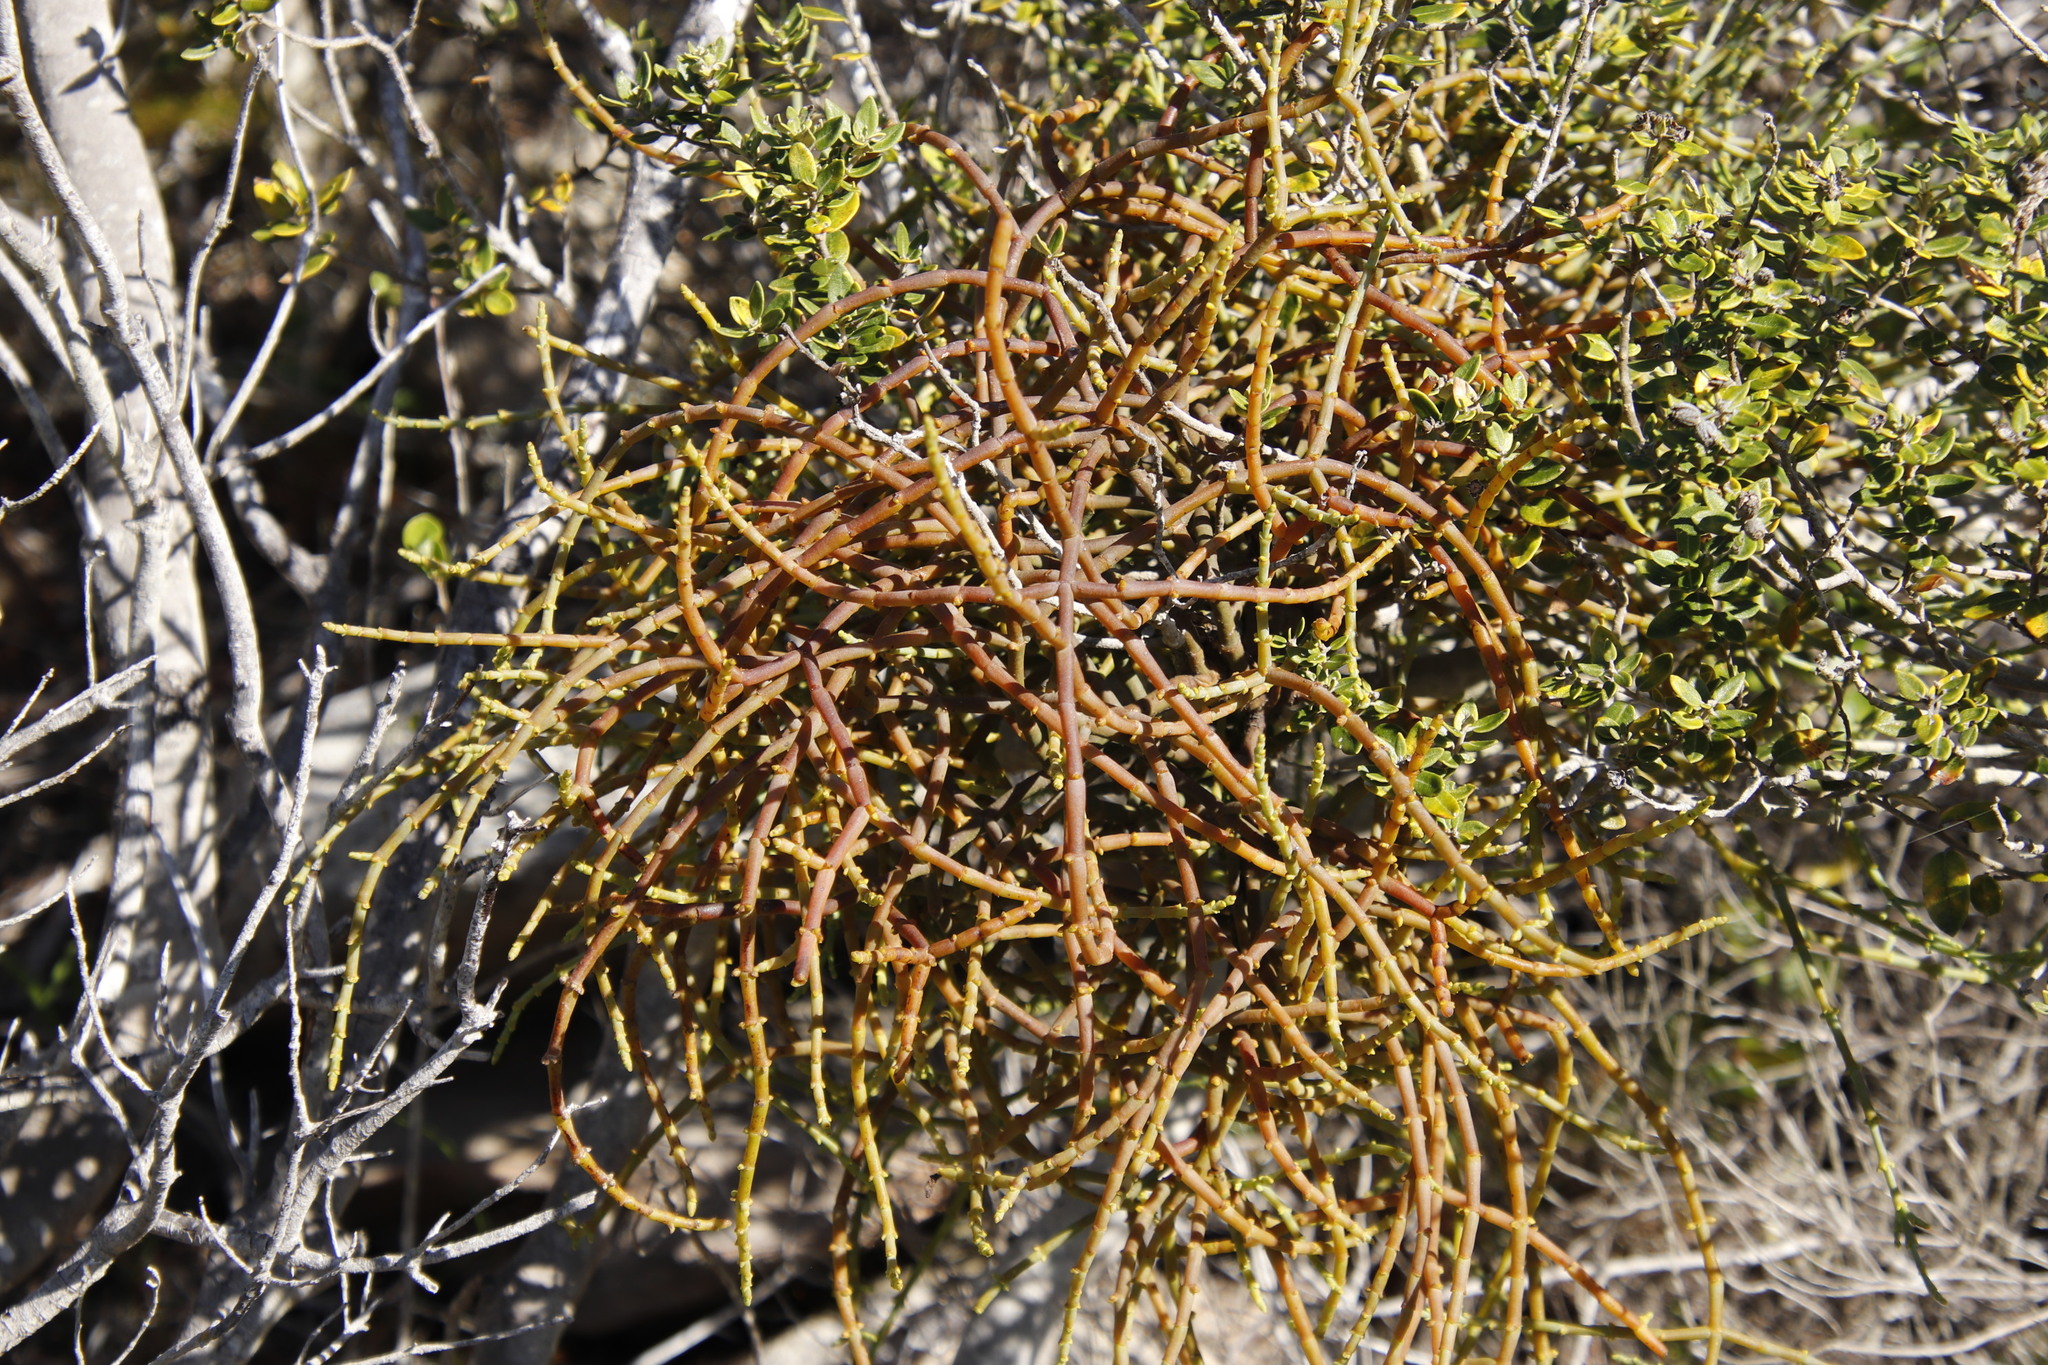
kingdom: Plantae
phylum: Tracheophyta
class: Magnoliopsida
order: Santalales
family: Viscaceae
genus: Viscum
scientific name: Viscum capense
